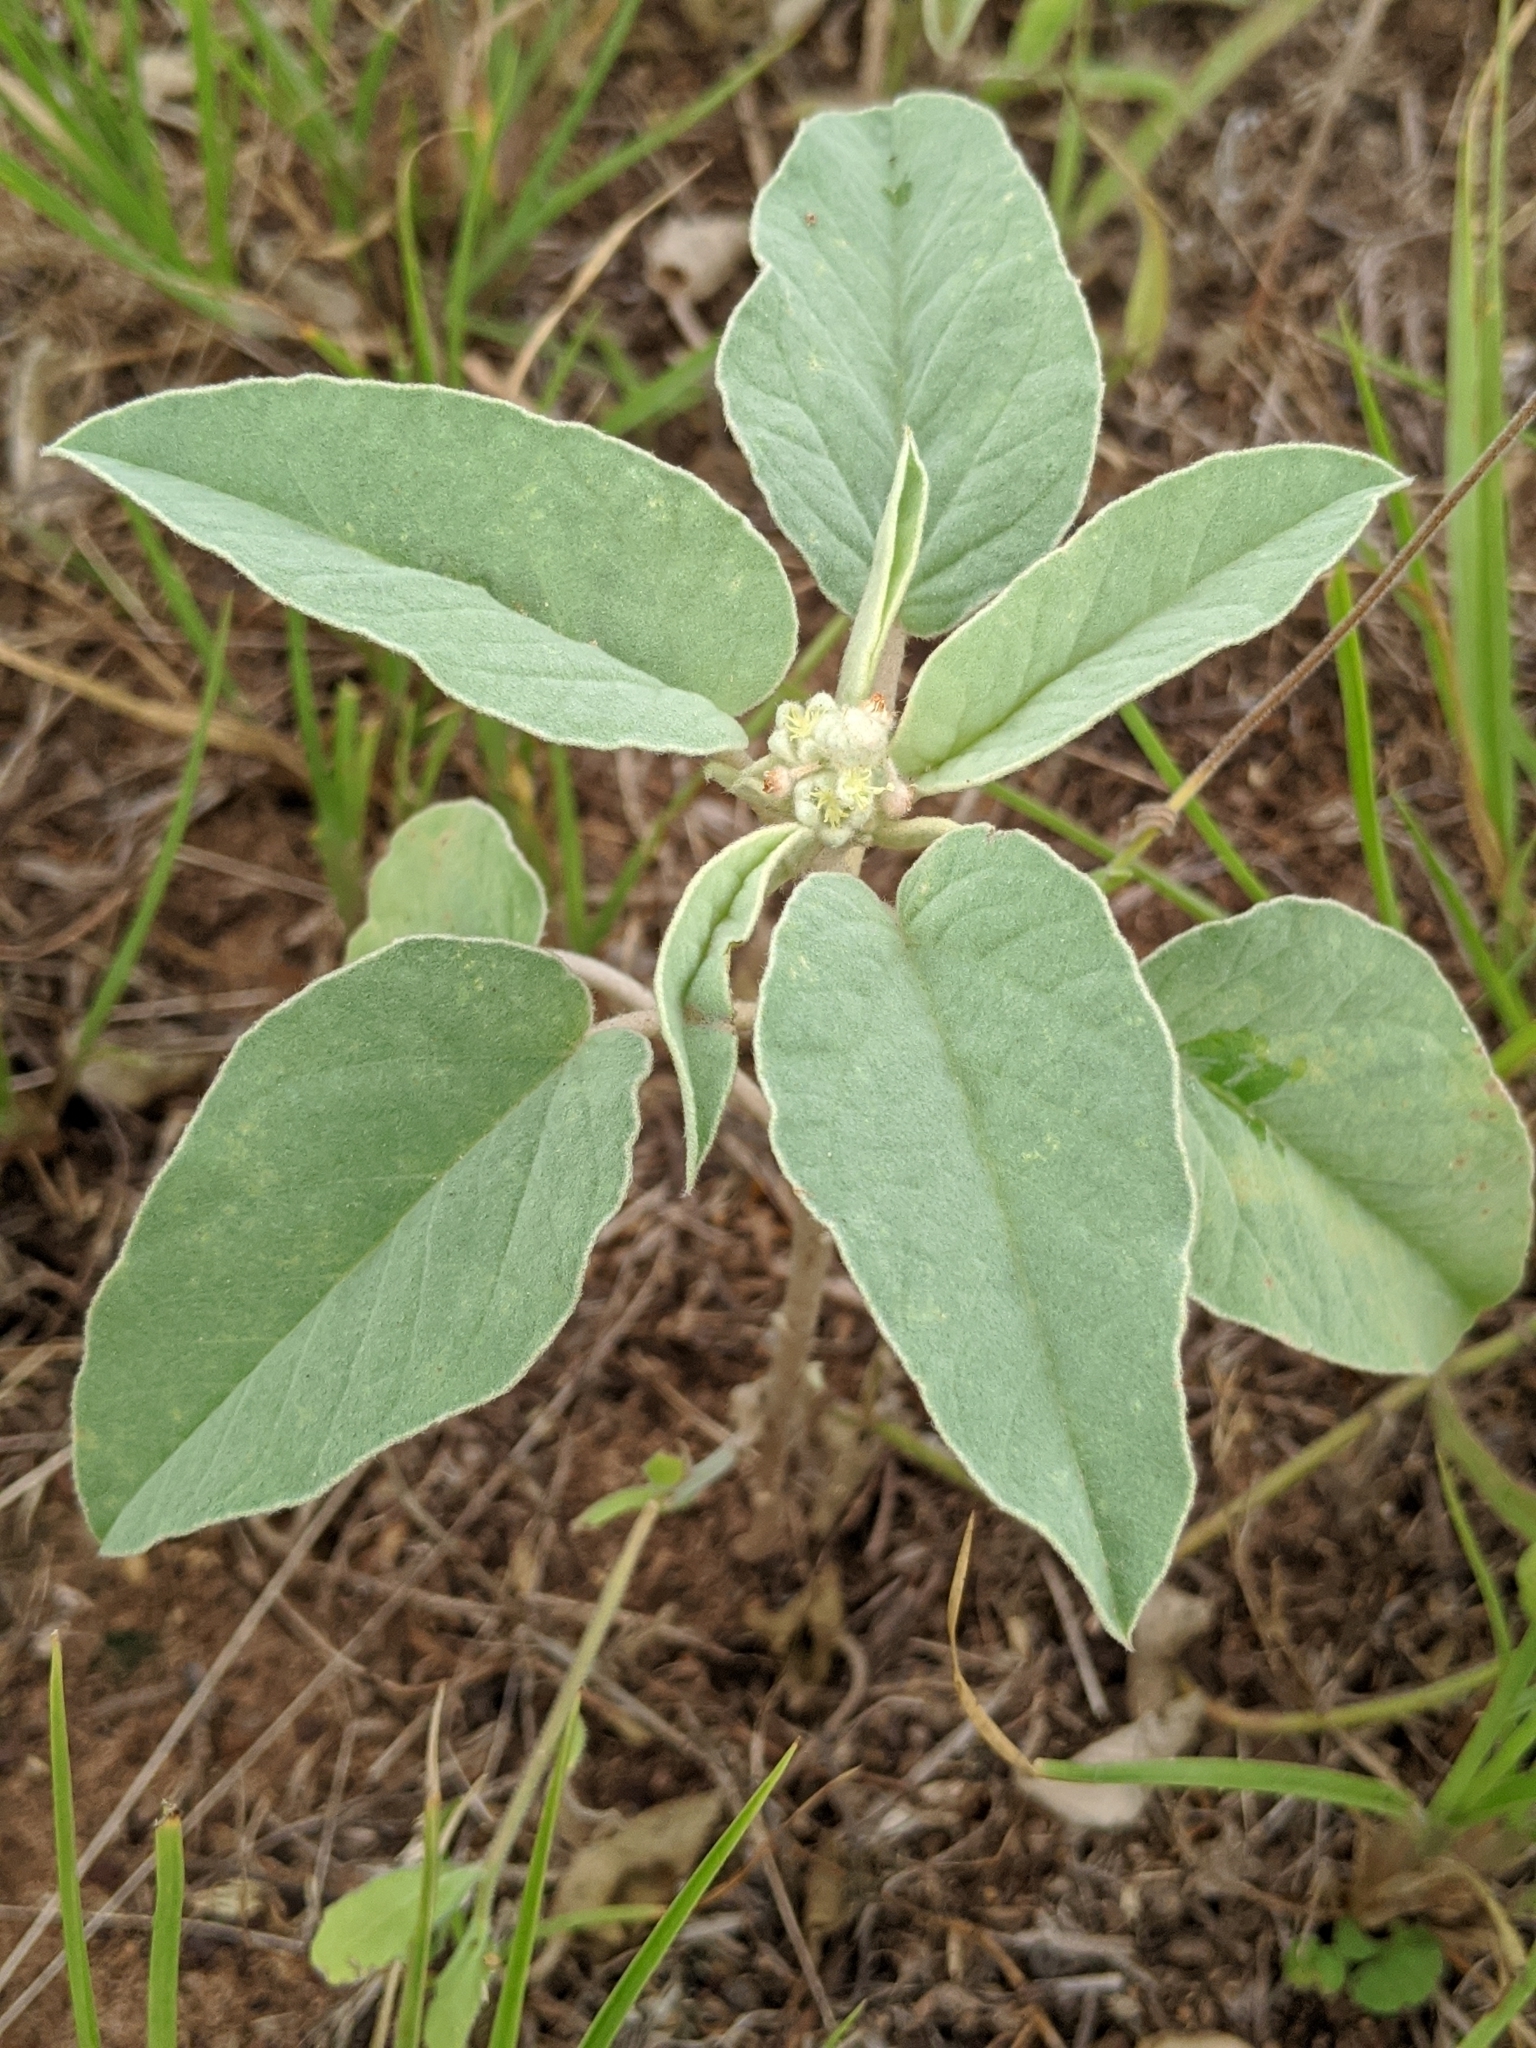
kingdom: Plantae
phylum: Tracheophyta
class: Magnoliopsida
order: Malpighiales
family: Euphorbiaceae
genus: Croton
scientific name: Croton heptalon
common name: Woolly croton
